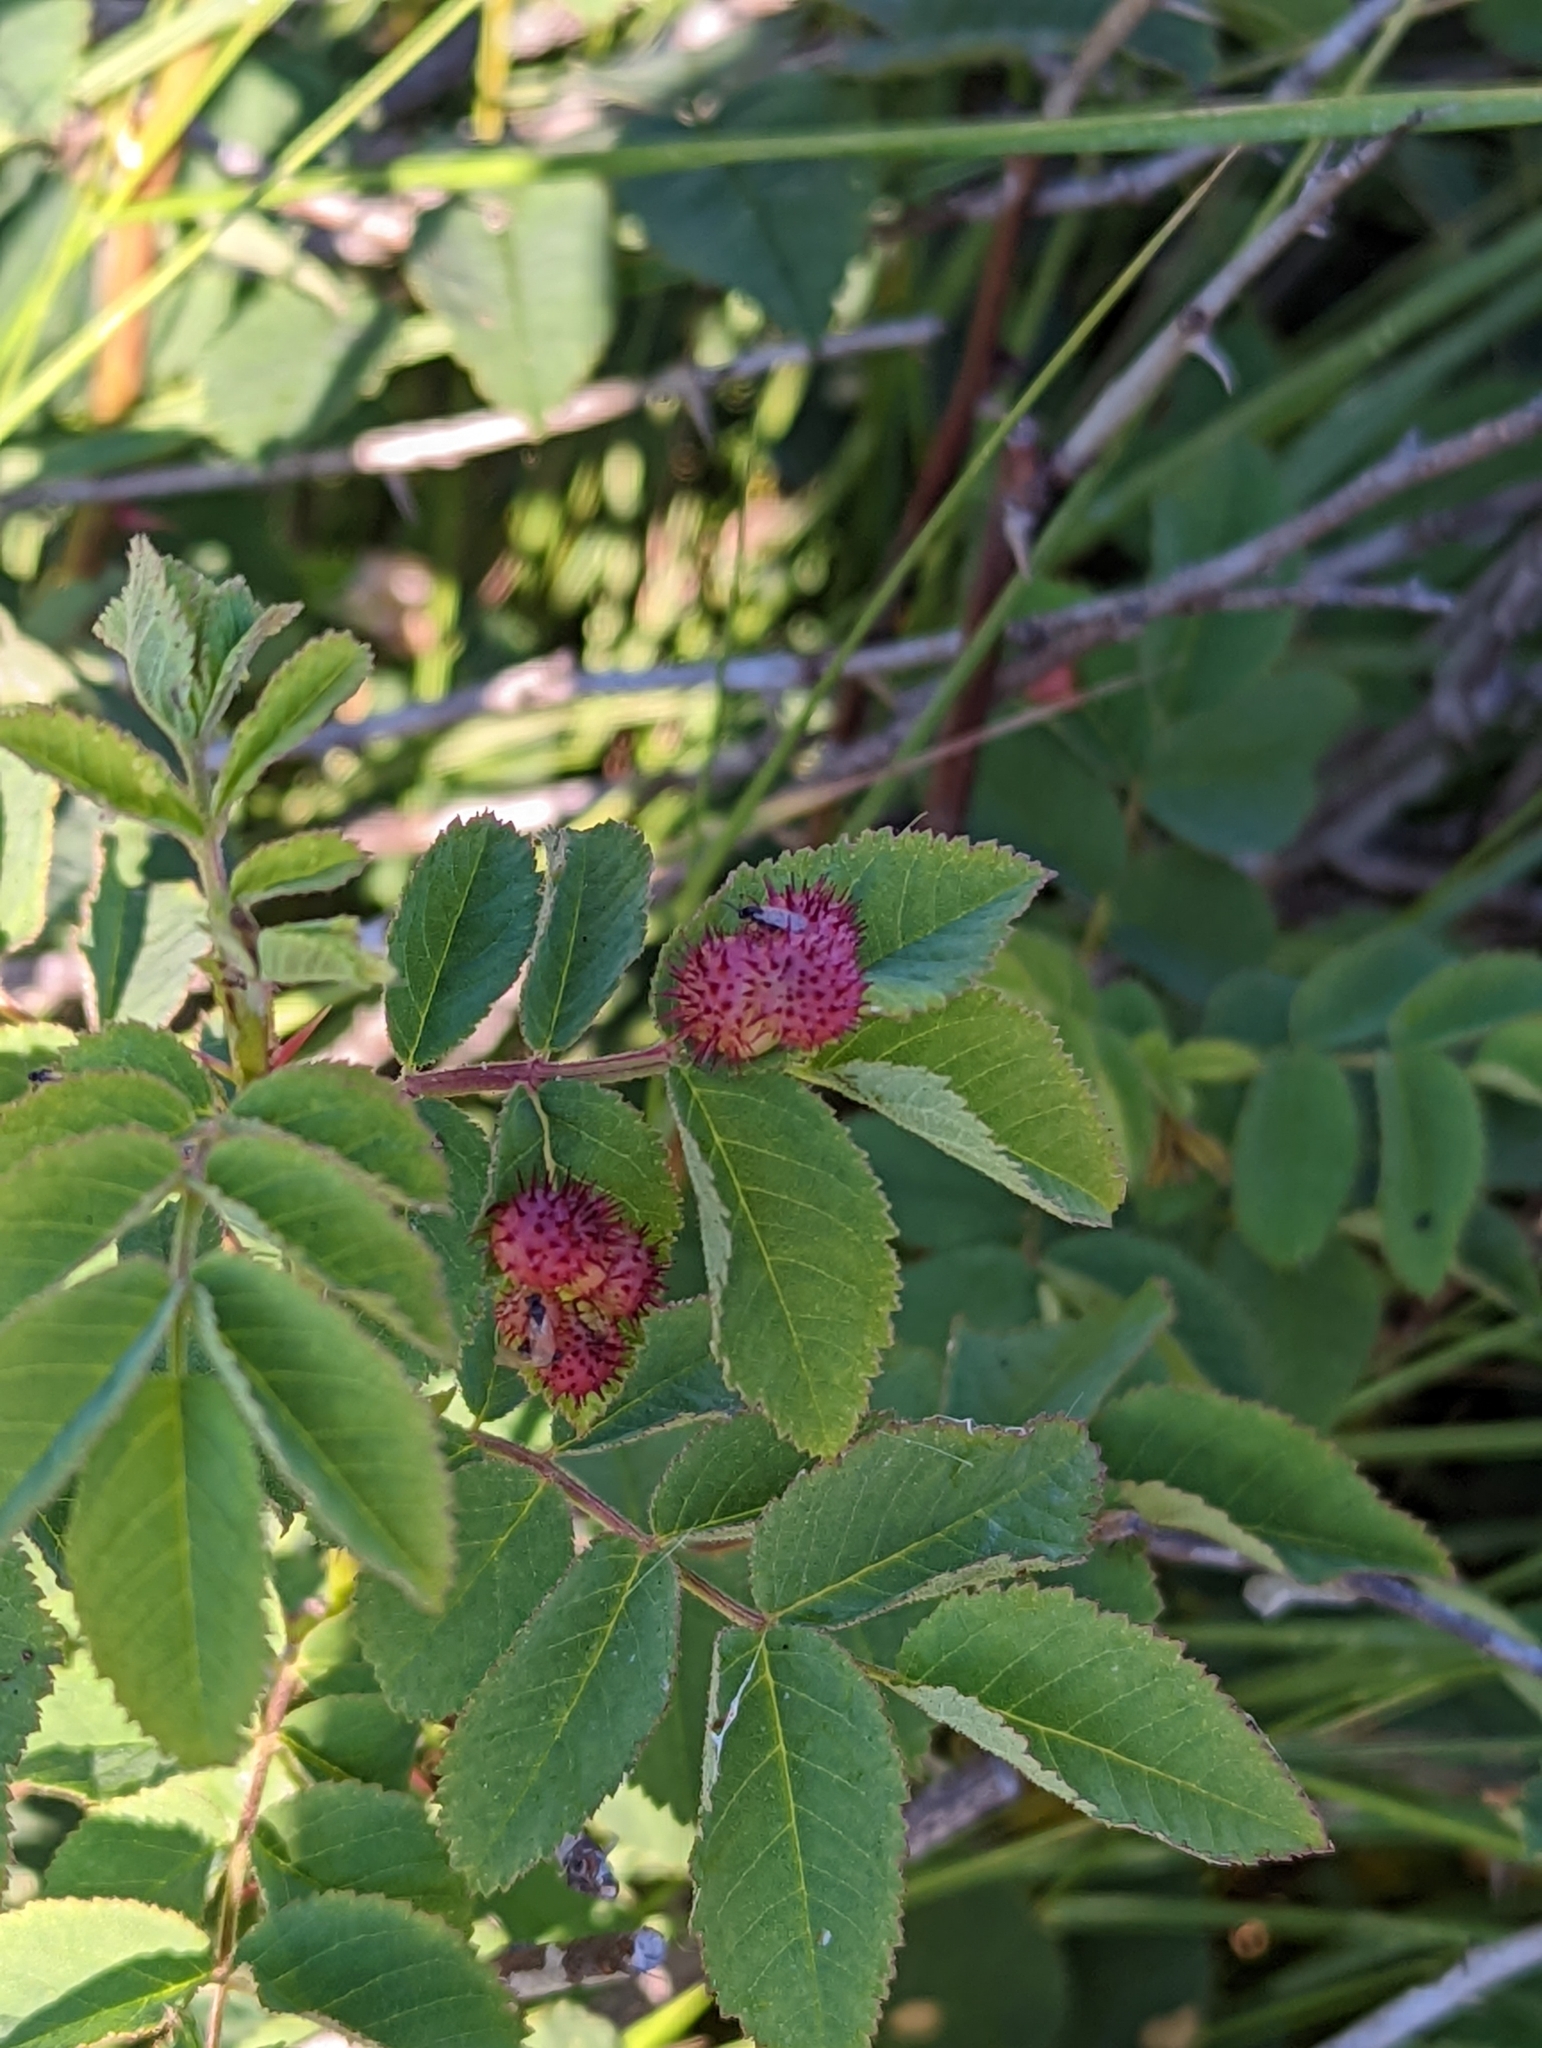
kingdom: Animalia
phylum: Arthropoda
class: Insecta
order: Hymenoptera
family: Cynipidae
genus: Diplolepis
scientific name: Diplolepis polita
